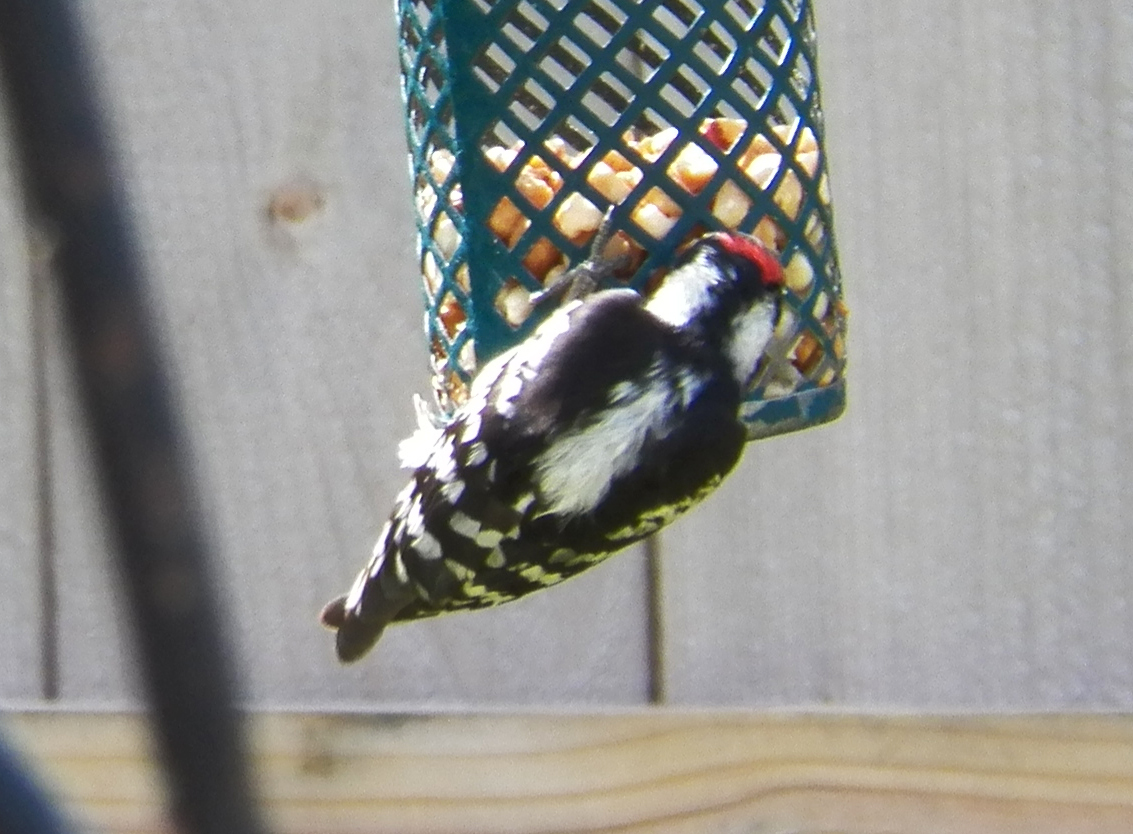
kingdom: Animalia
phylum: Chordata
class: Aves
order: Piciformes
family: Picidae
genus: Dryobates
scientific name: Dryobates pubescens
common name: Downy woodpecker
